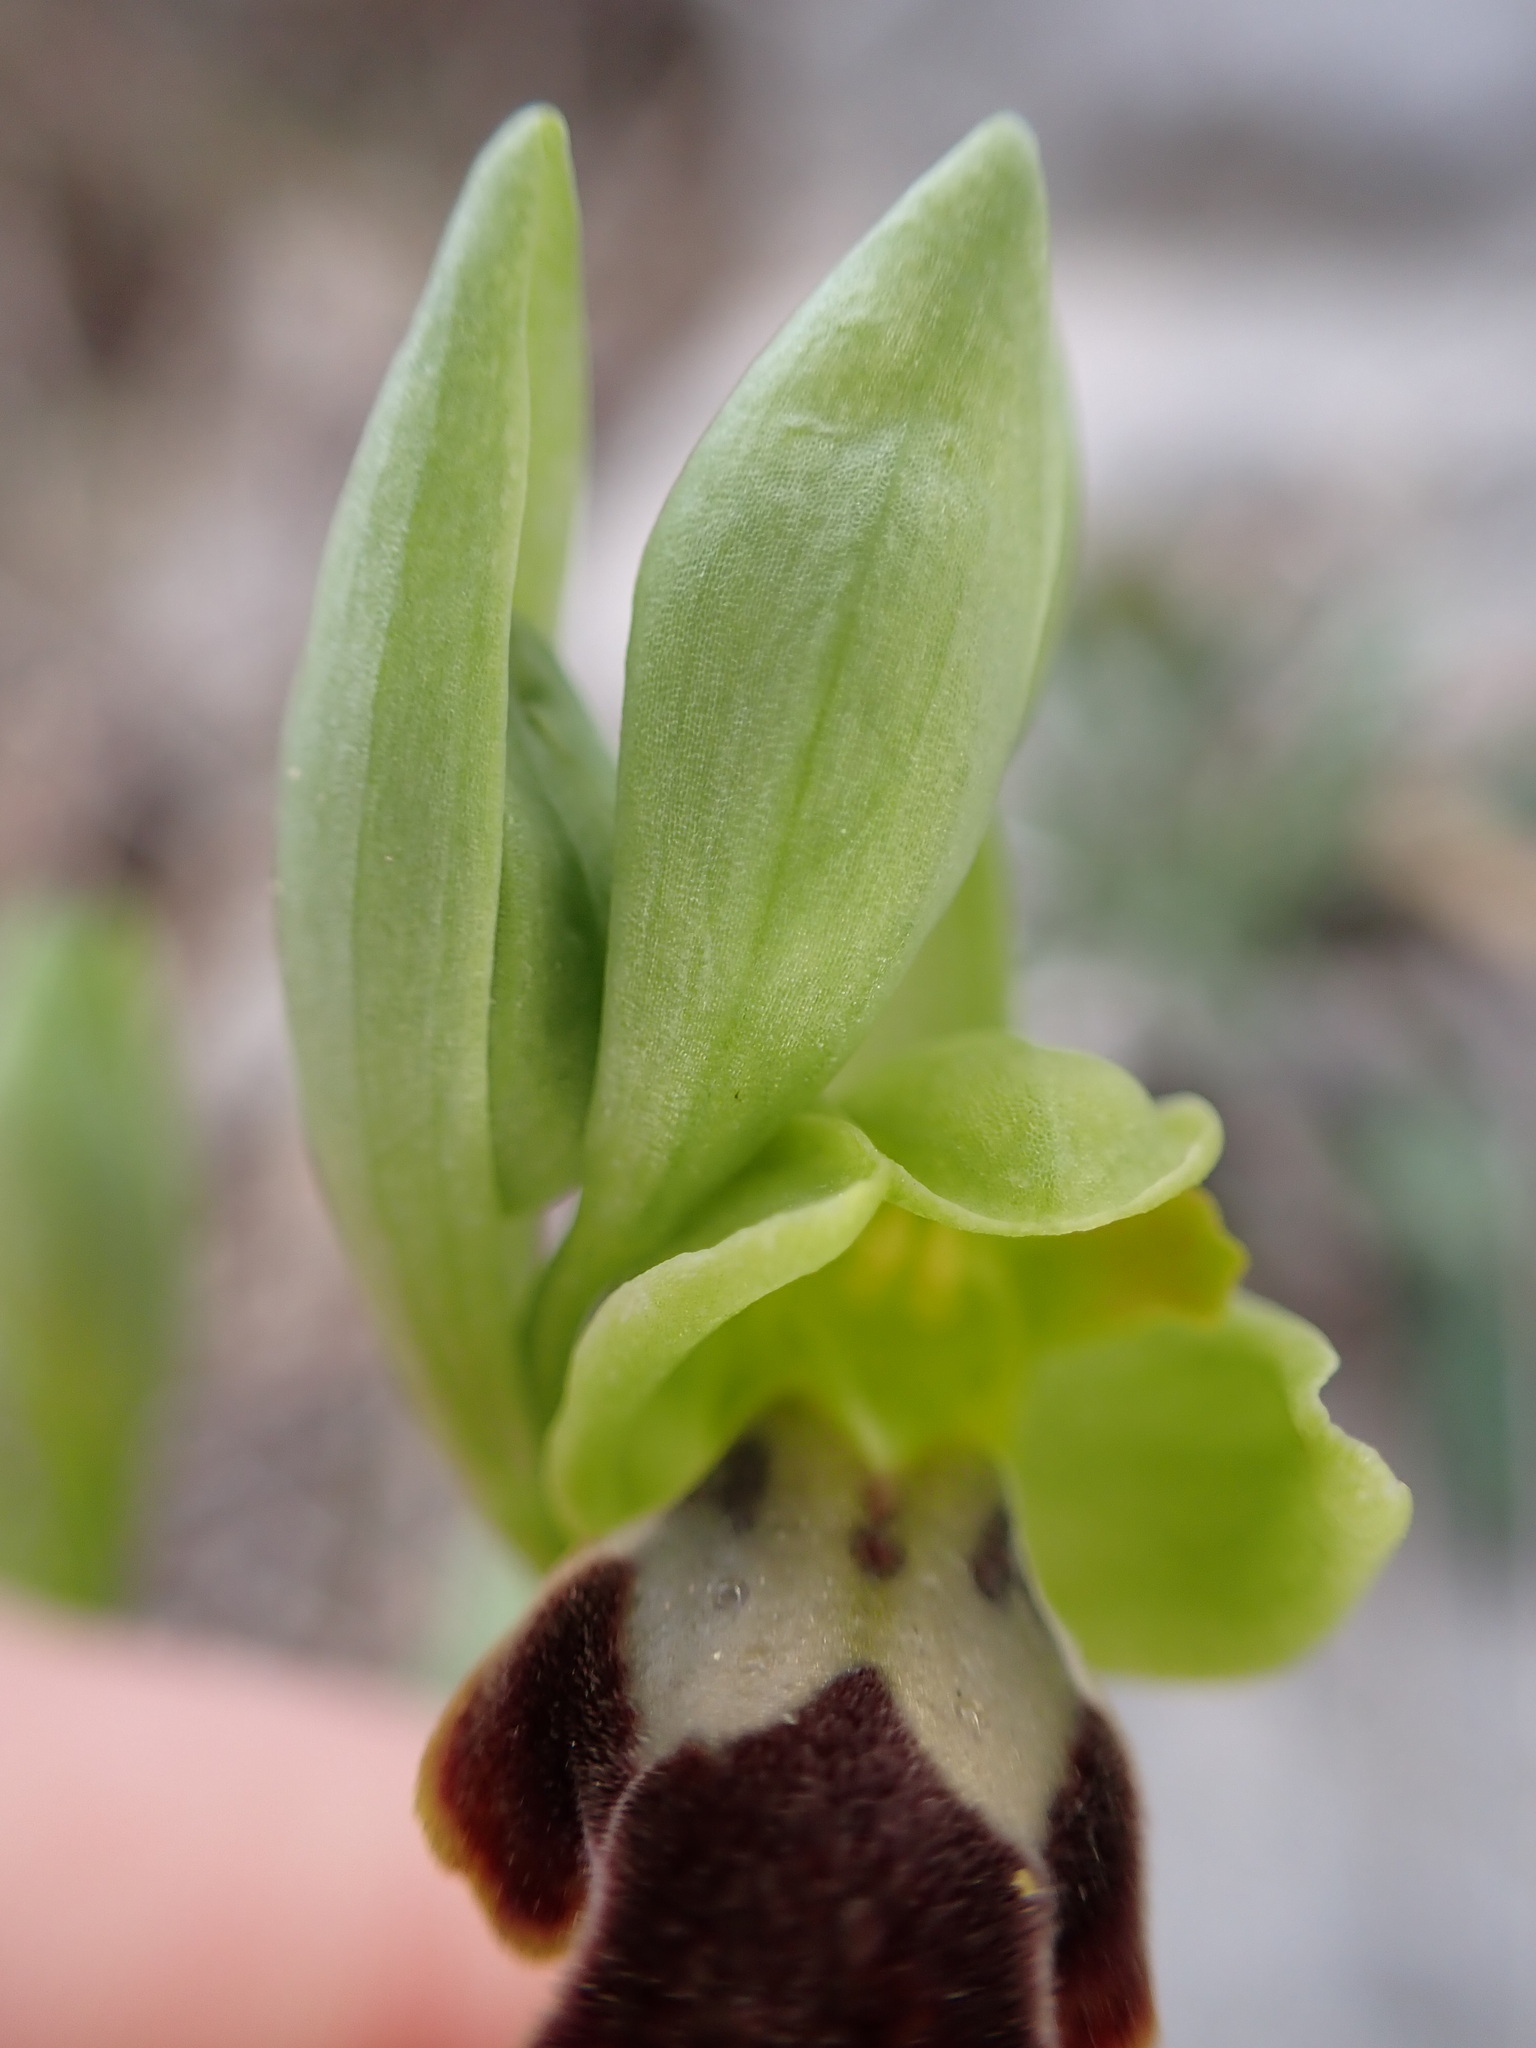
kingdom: Plantae
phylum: Tracheophyta
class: Liliopsida
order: Asparagales
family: Orchidaceae
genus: Ophrys
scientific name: Ophrys fusca
